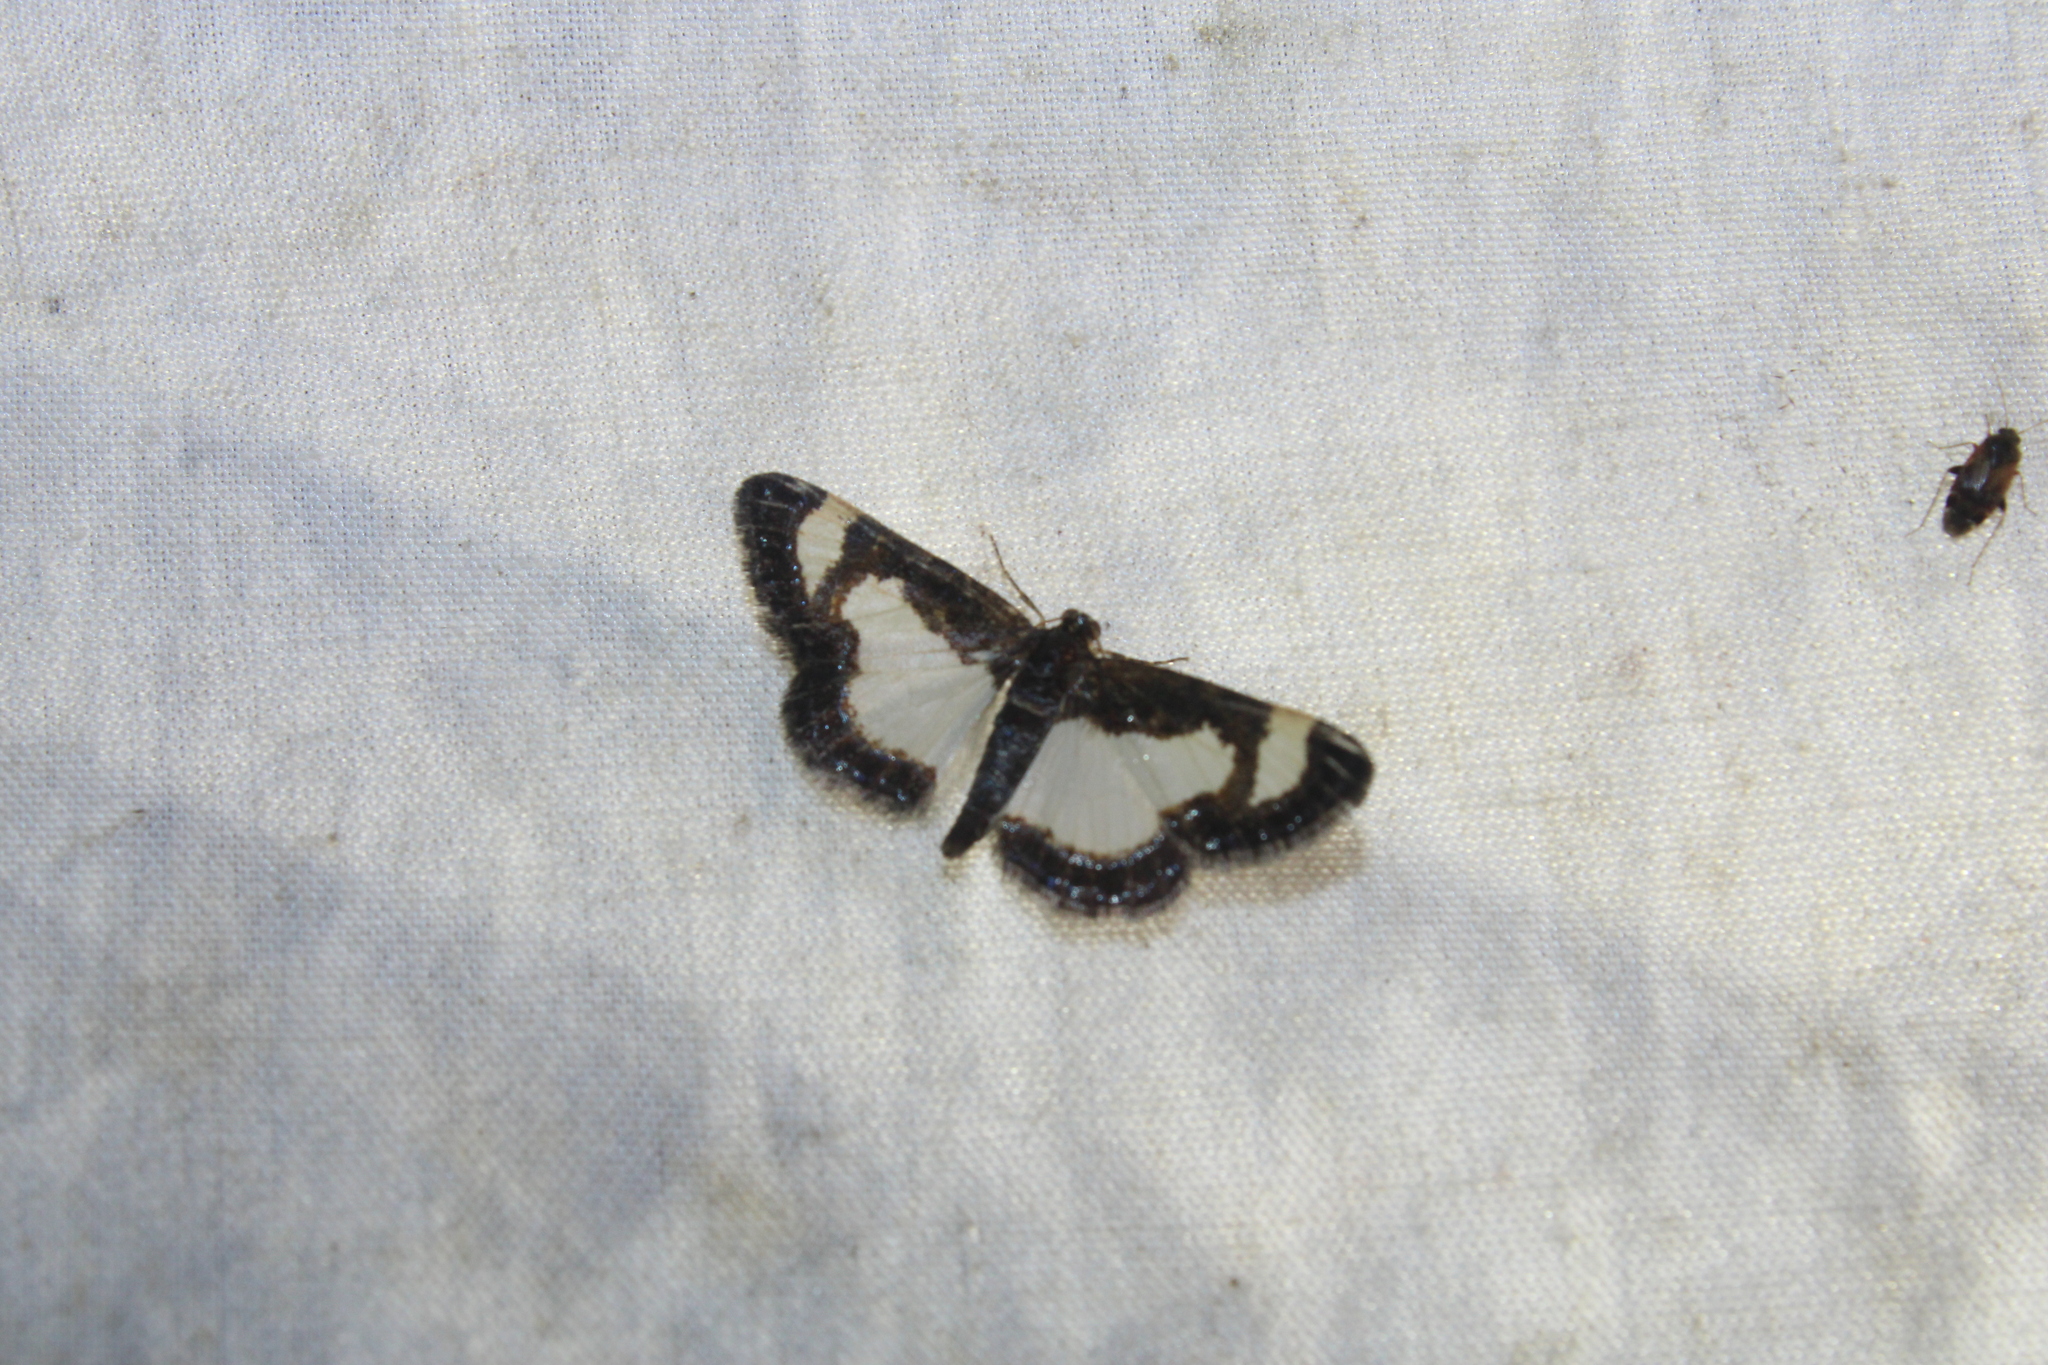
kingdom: Animalia
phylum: Arthropoda
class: Insecta
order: Lepidoptera
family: Geometridae
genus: Heliomata
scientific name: Heliomata cycladata
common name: Common spring moth
